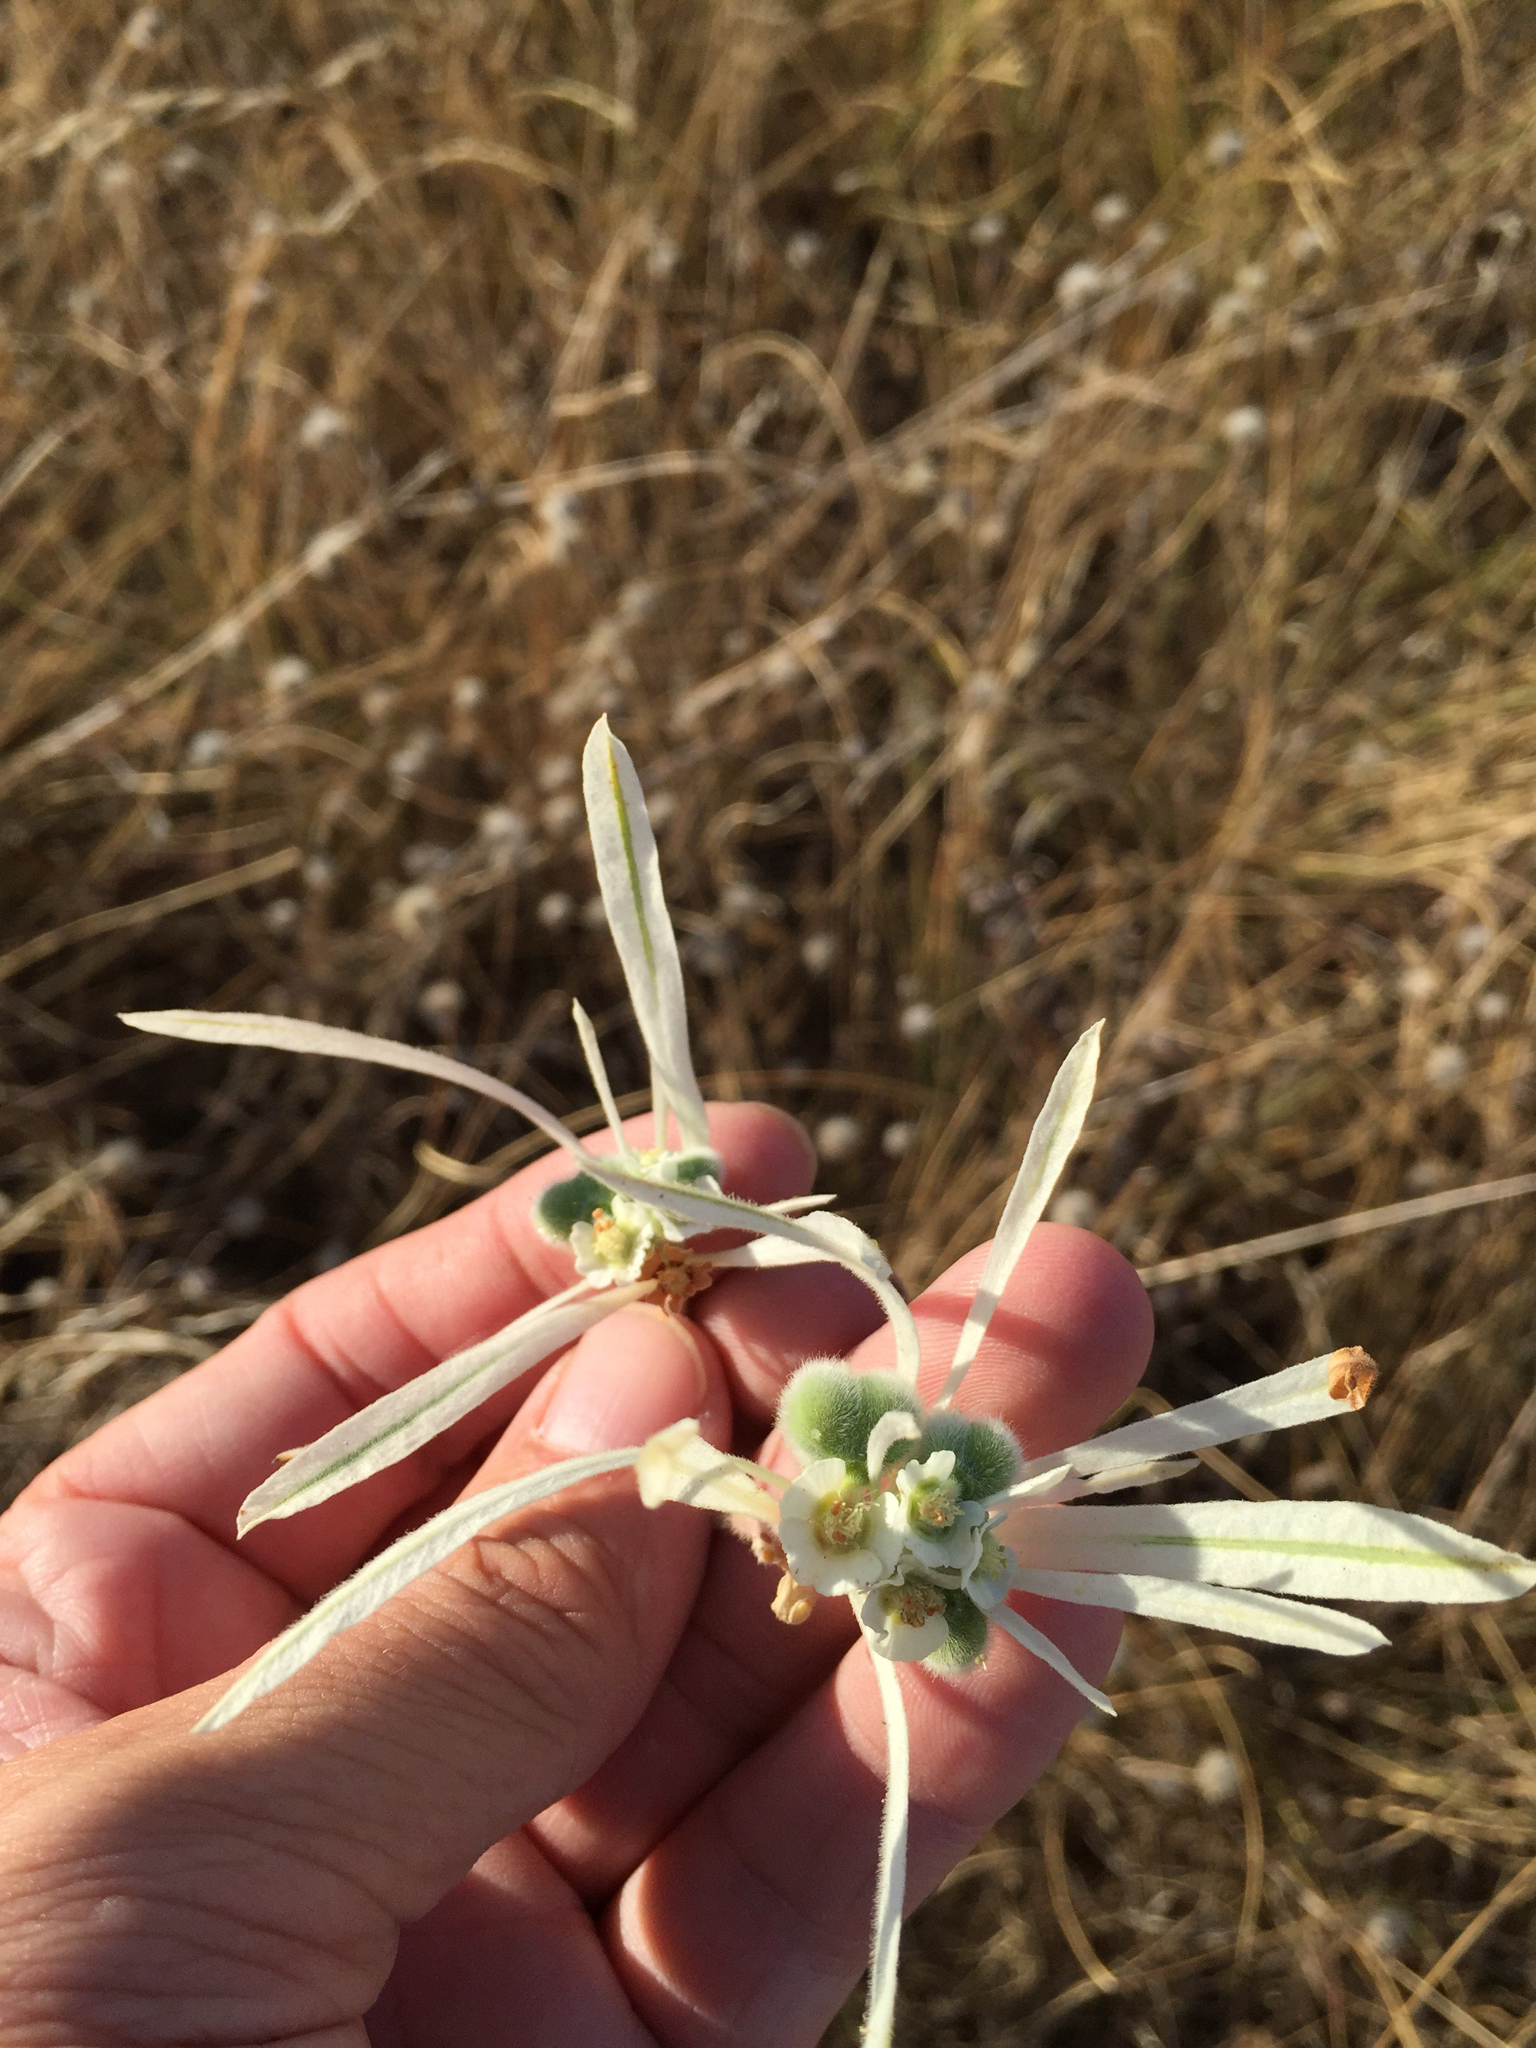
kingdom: Plantae
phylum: Tracheophyta
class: Magnoliopsida
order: Malpighiales
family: Euphorbiaceae
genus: Euphorbia
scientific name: Euphorbia bicolor
